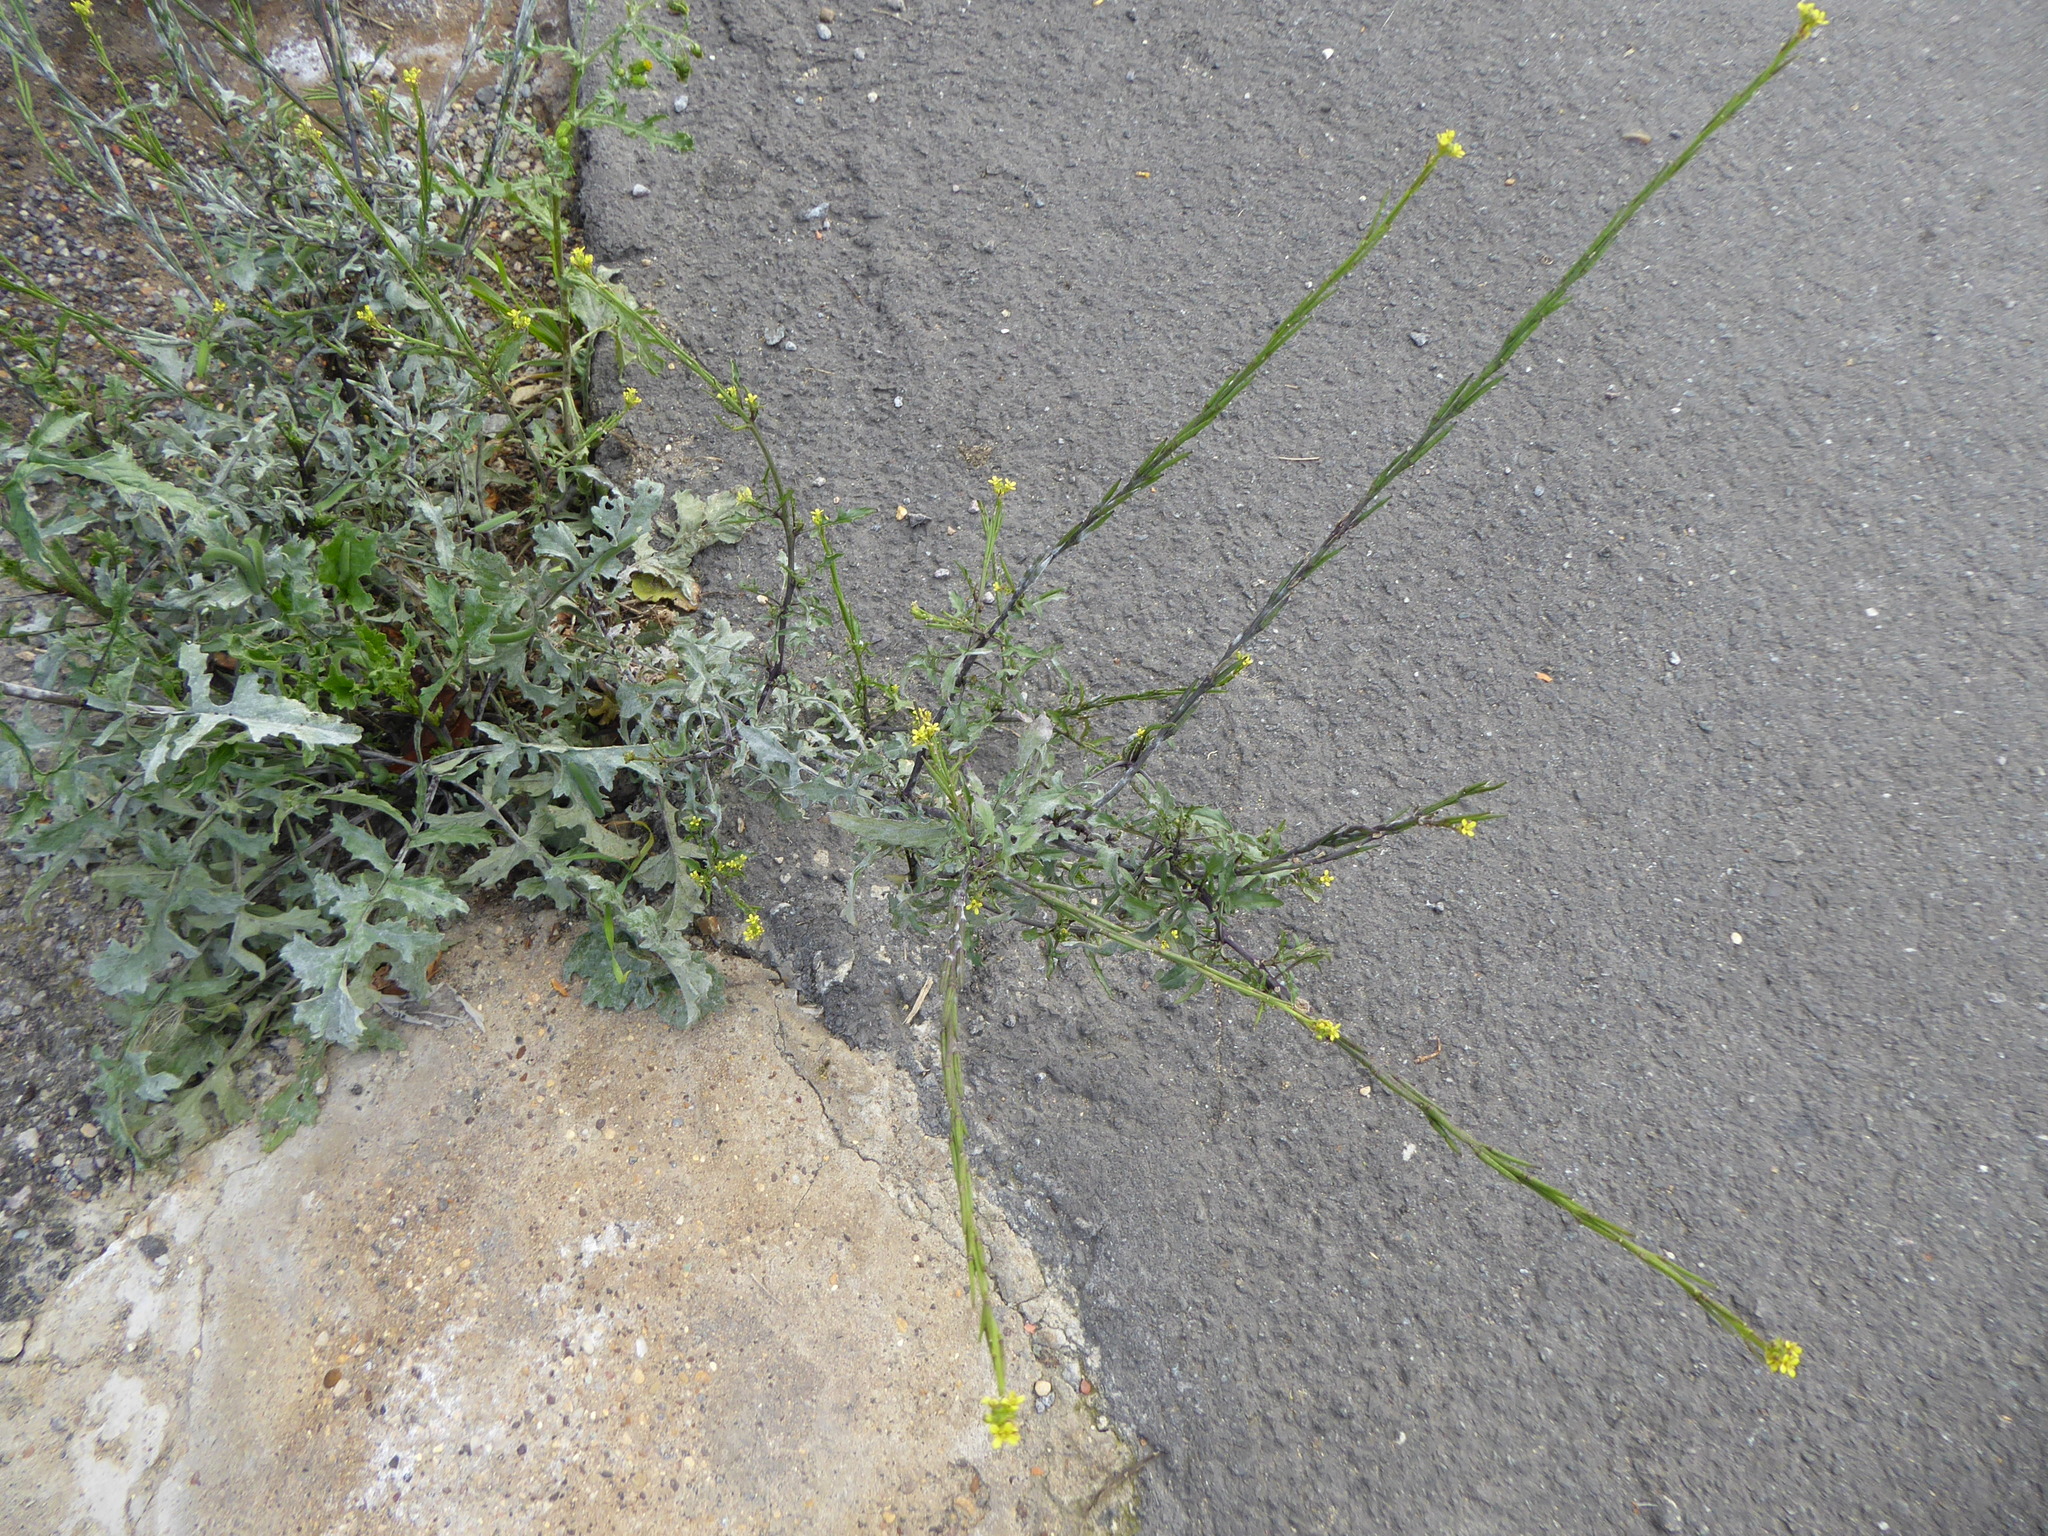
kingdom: Plantae
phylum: Tracheophyta
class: Magnoliopsida
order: Brassicales
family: Brassicaceae
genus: Sisymbrium
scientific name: Sisymbrium officinale
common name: Hedge mustard
